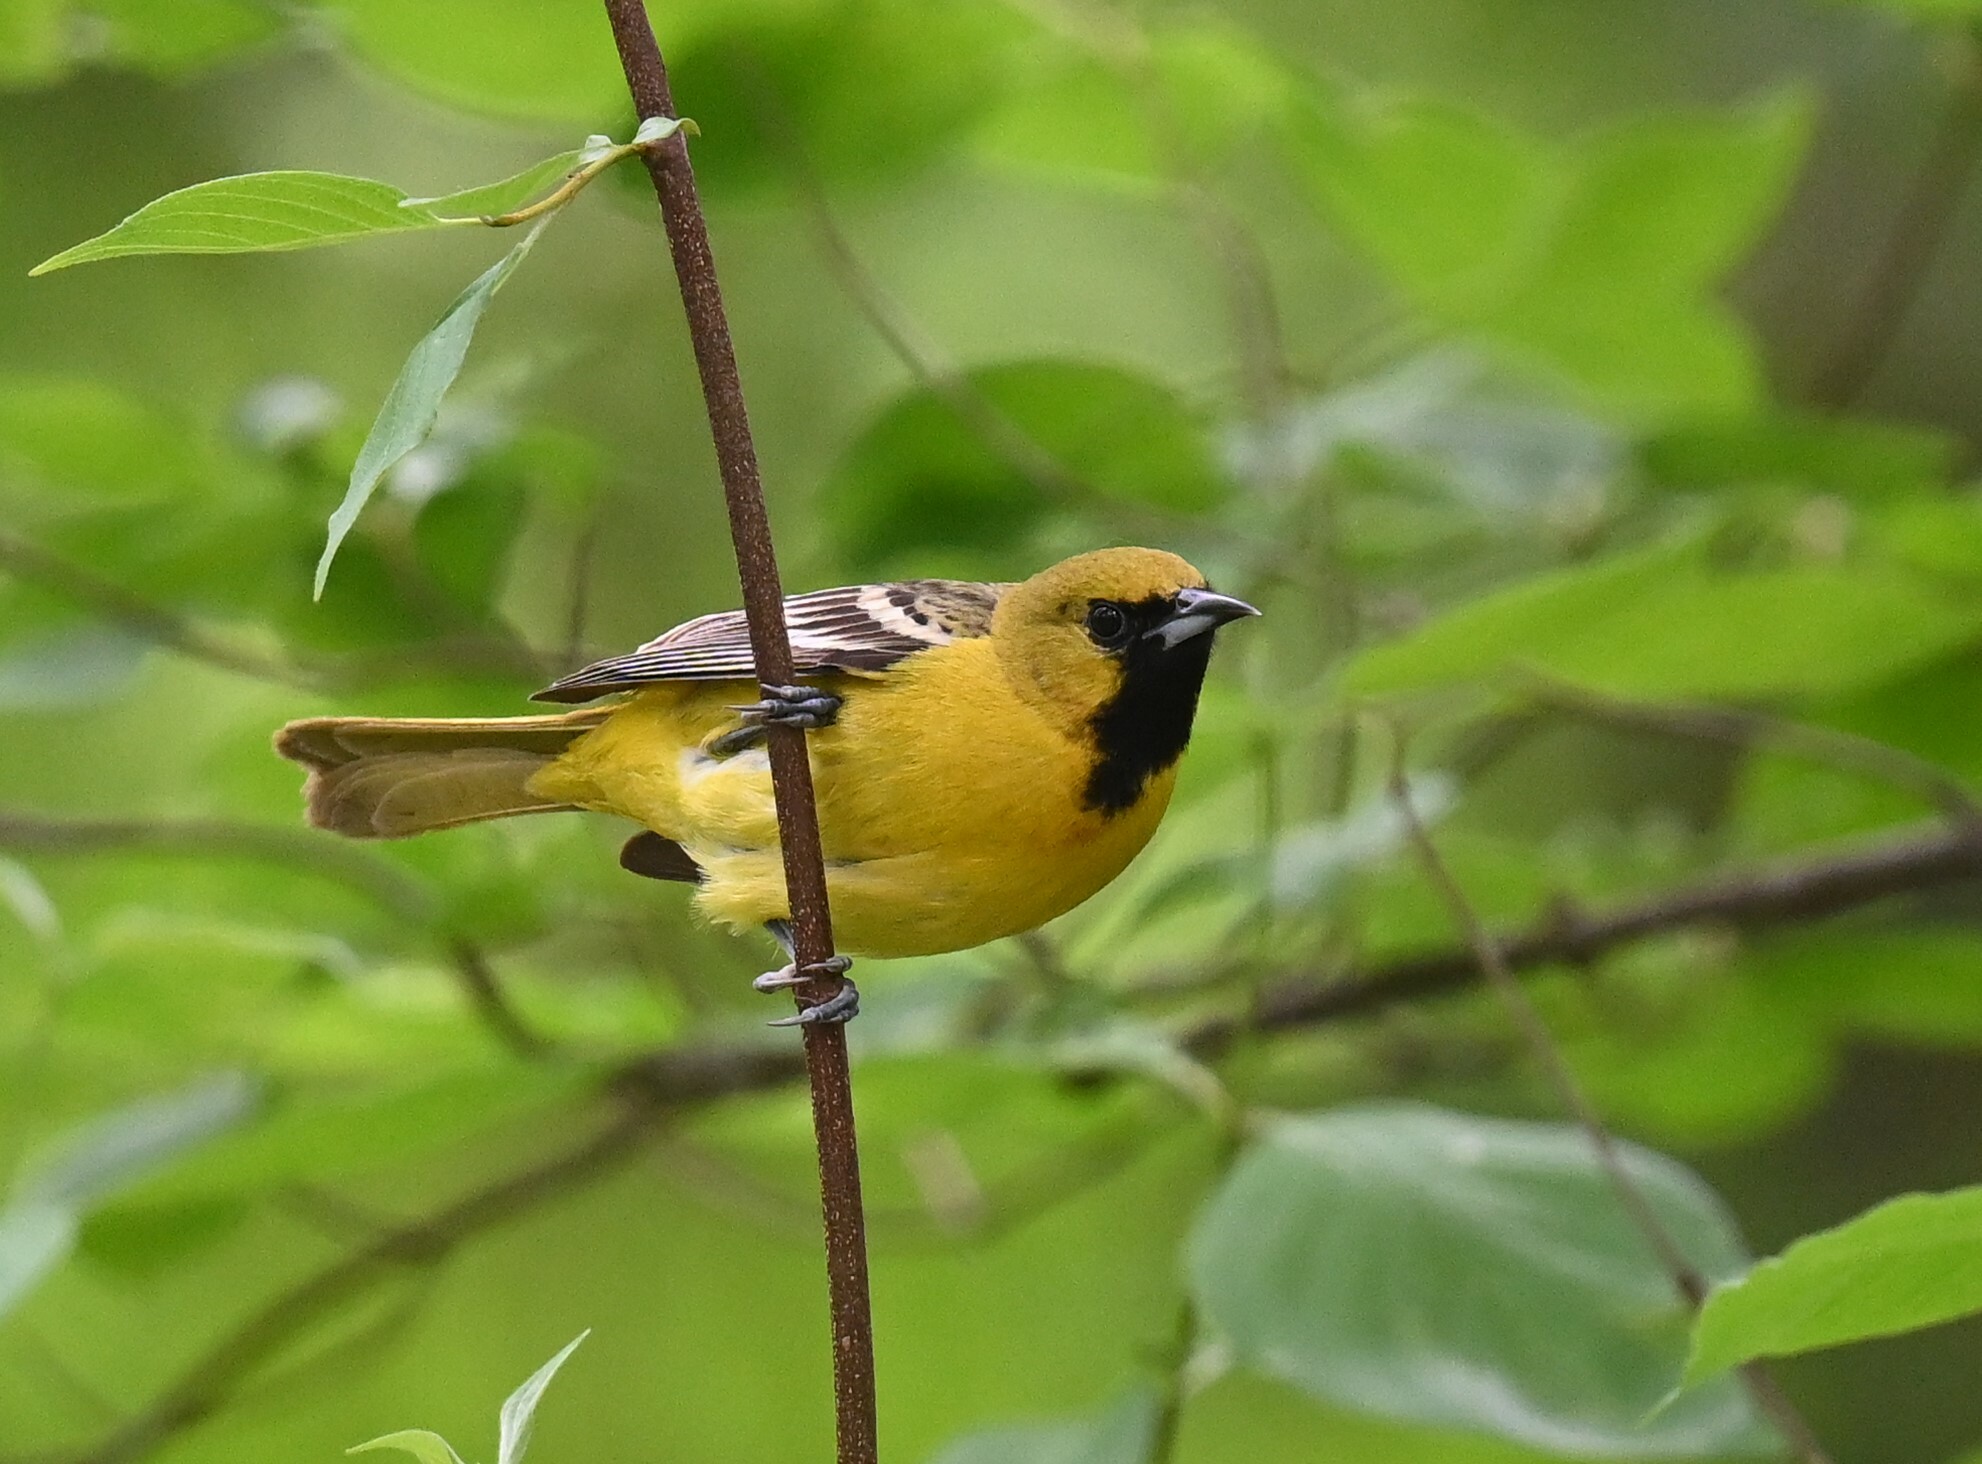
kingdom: Animalia
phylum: Chordata
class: Aves
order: Passeriformes
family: Icteridae
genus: Icterus
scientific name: Icterus spurius
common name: Orchard oriole
